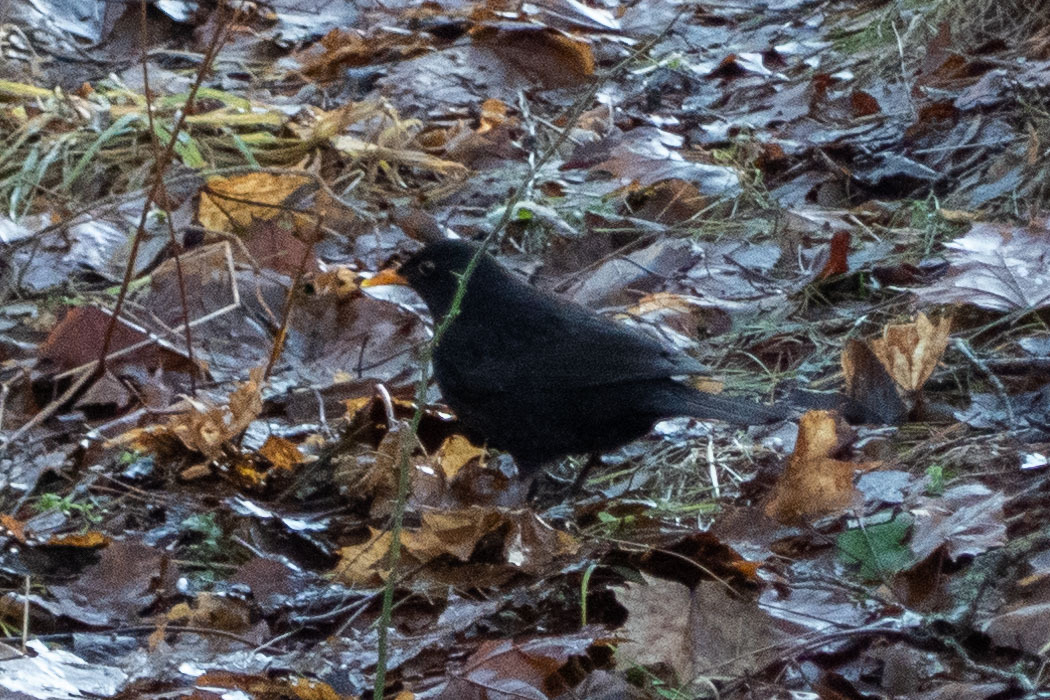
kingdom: Animalia
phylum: Chordata
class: Aves
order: Passeriformes
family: Turdidae
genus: Turdus
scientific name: Turdus merula
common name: Common blackbird
